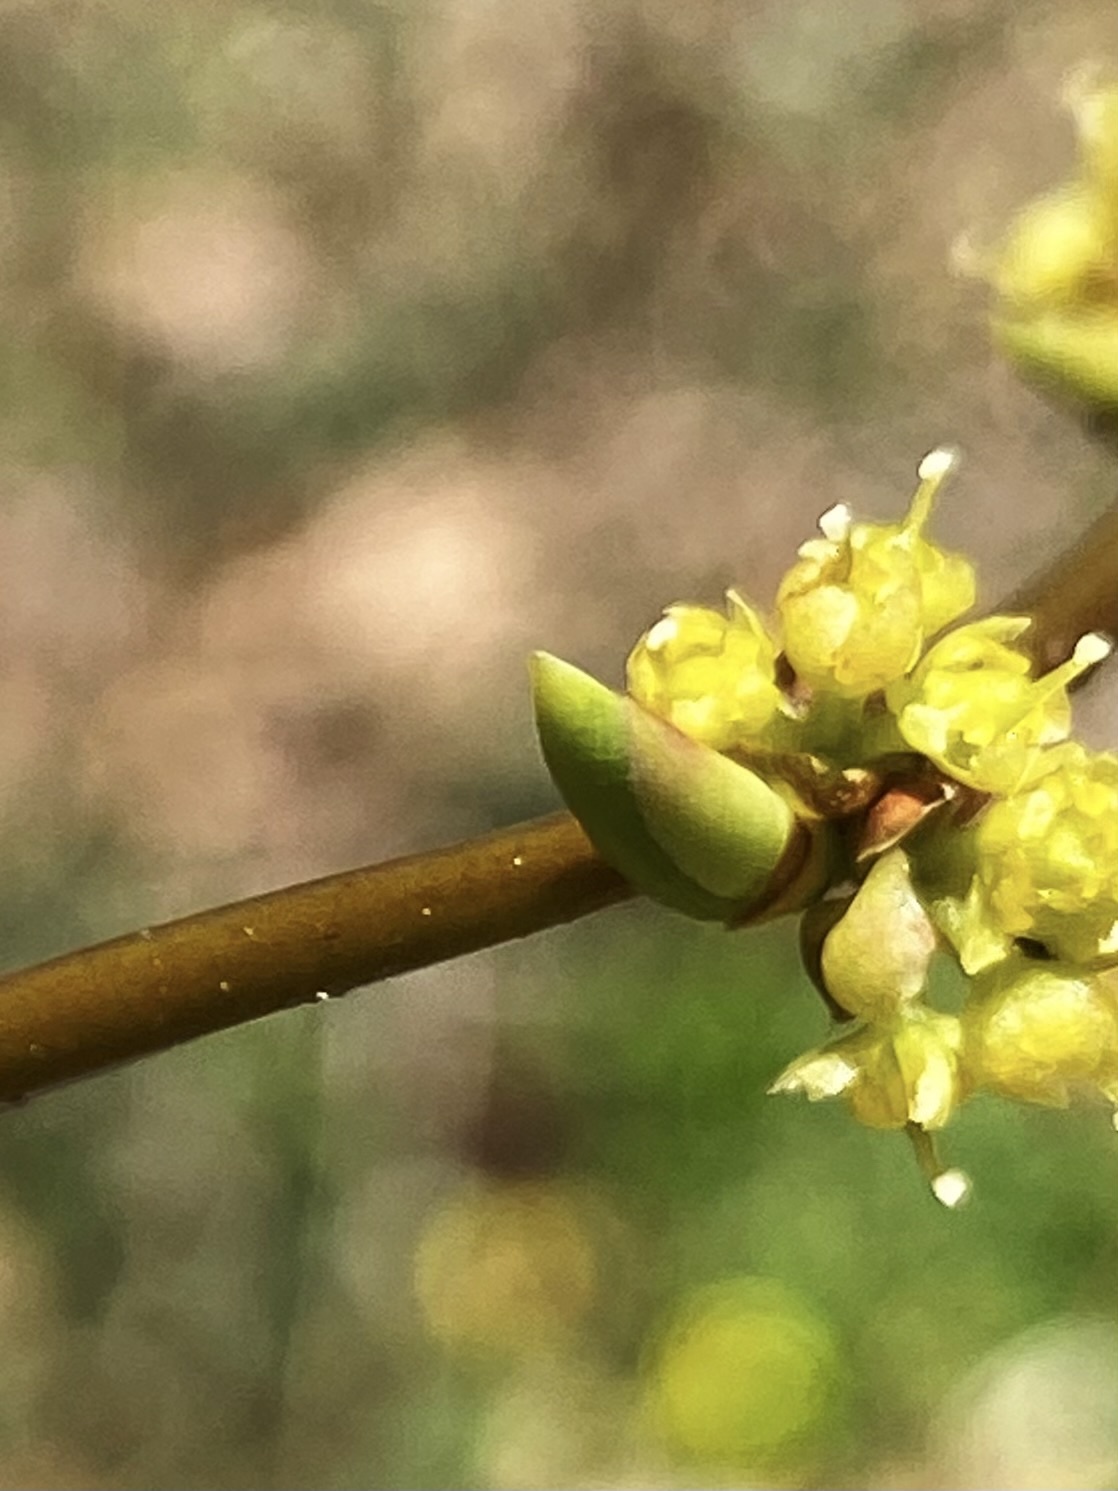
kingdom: Plantae
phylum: Tracheophyta
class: Magnoliopsida
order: Laurales
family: Lauraceae
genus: Lindera
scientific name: Lindera benzoin
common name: Spicebush
